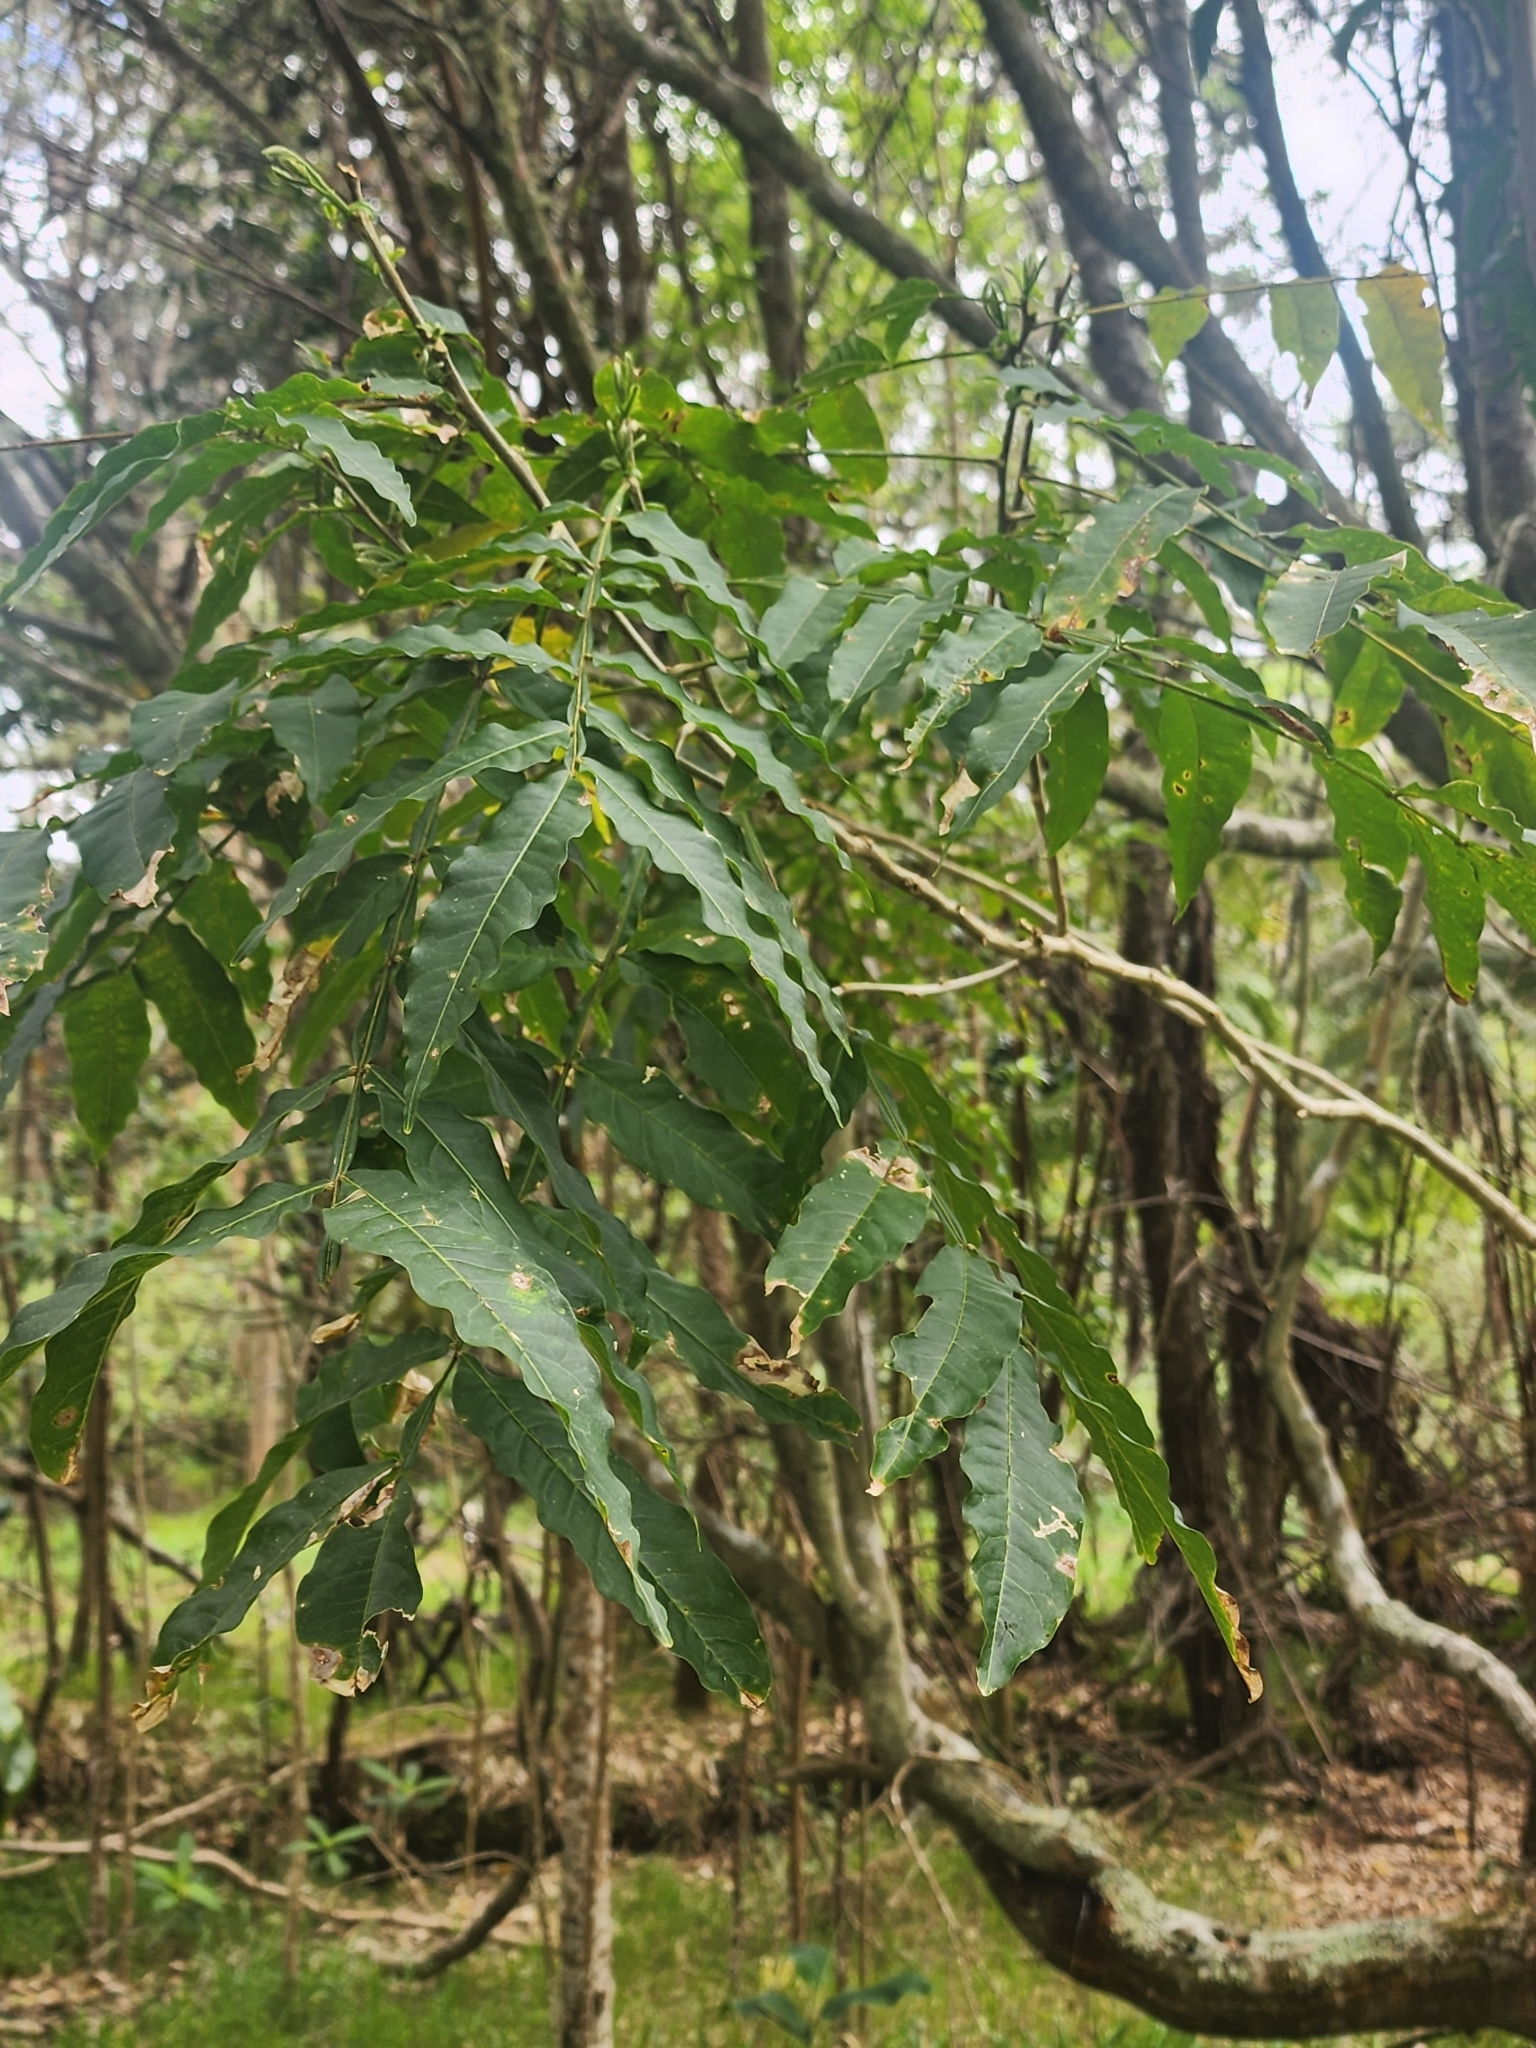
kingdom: Plantae
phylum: Tracheophyta
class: Magnoliopsida
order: Sapindales
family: Sapindaceae
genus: Sapindus
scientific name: Sapindus saponaria
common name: Wingleaf soapberry
